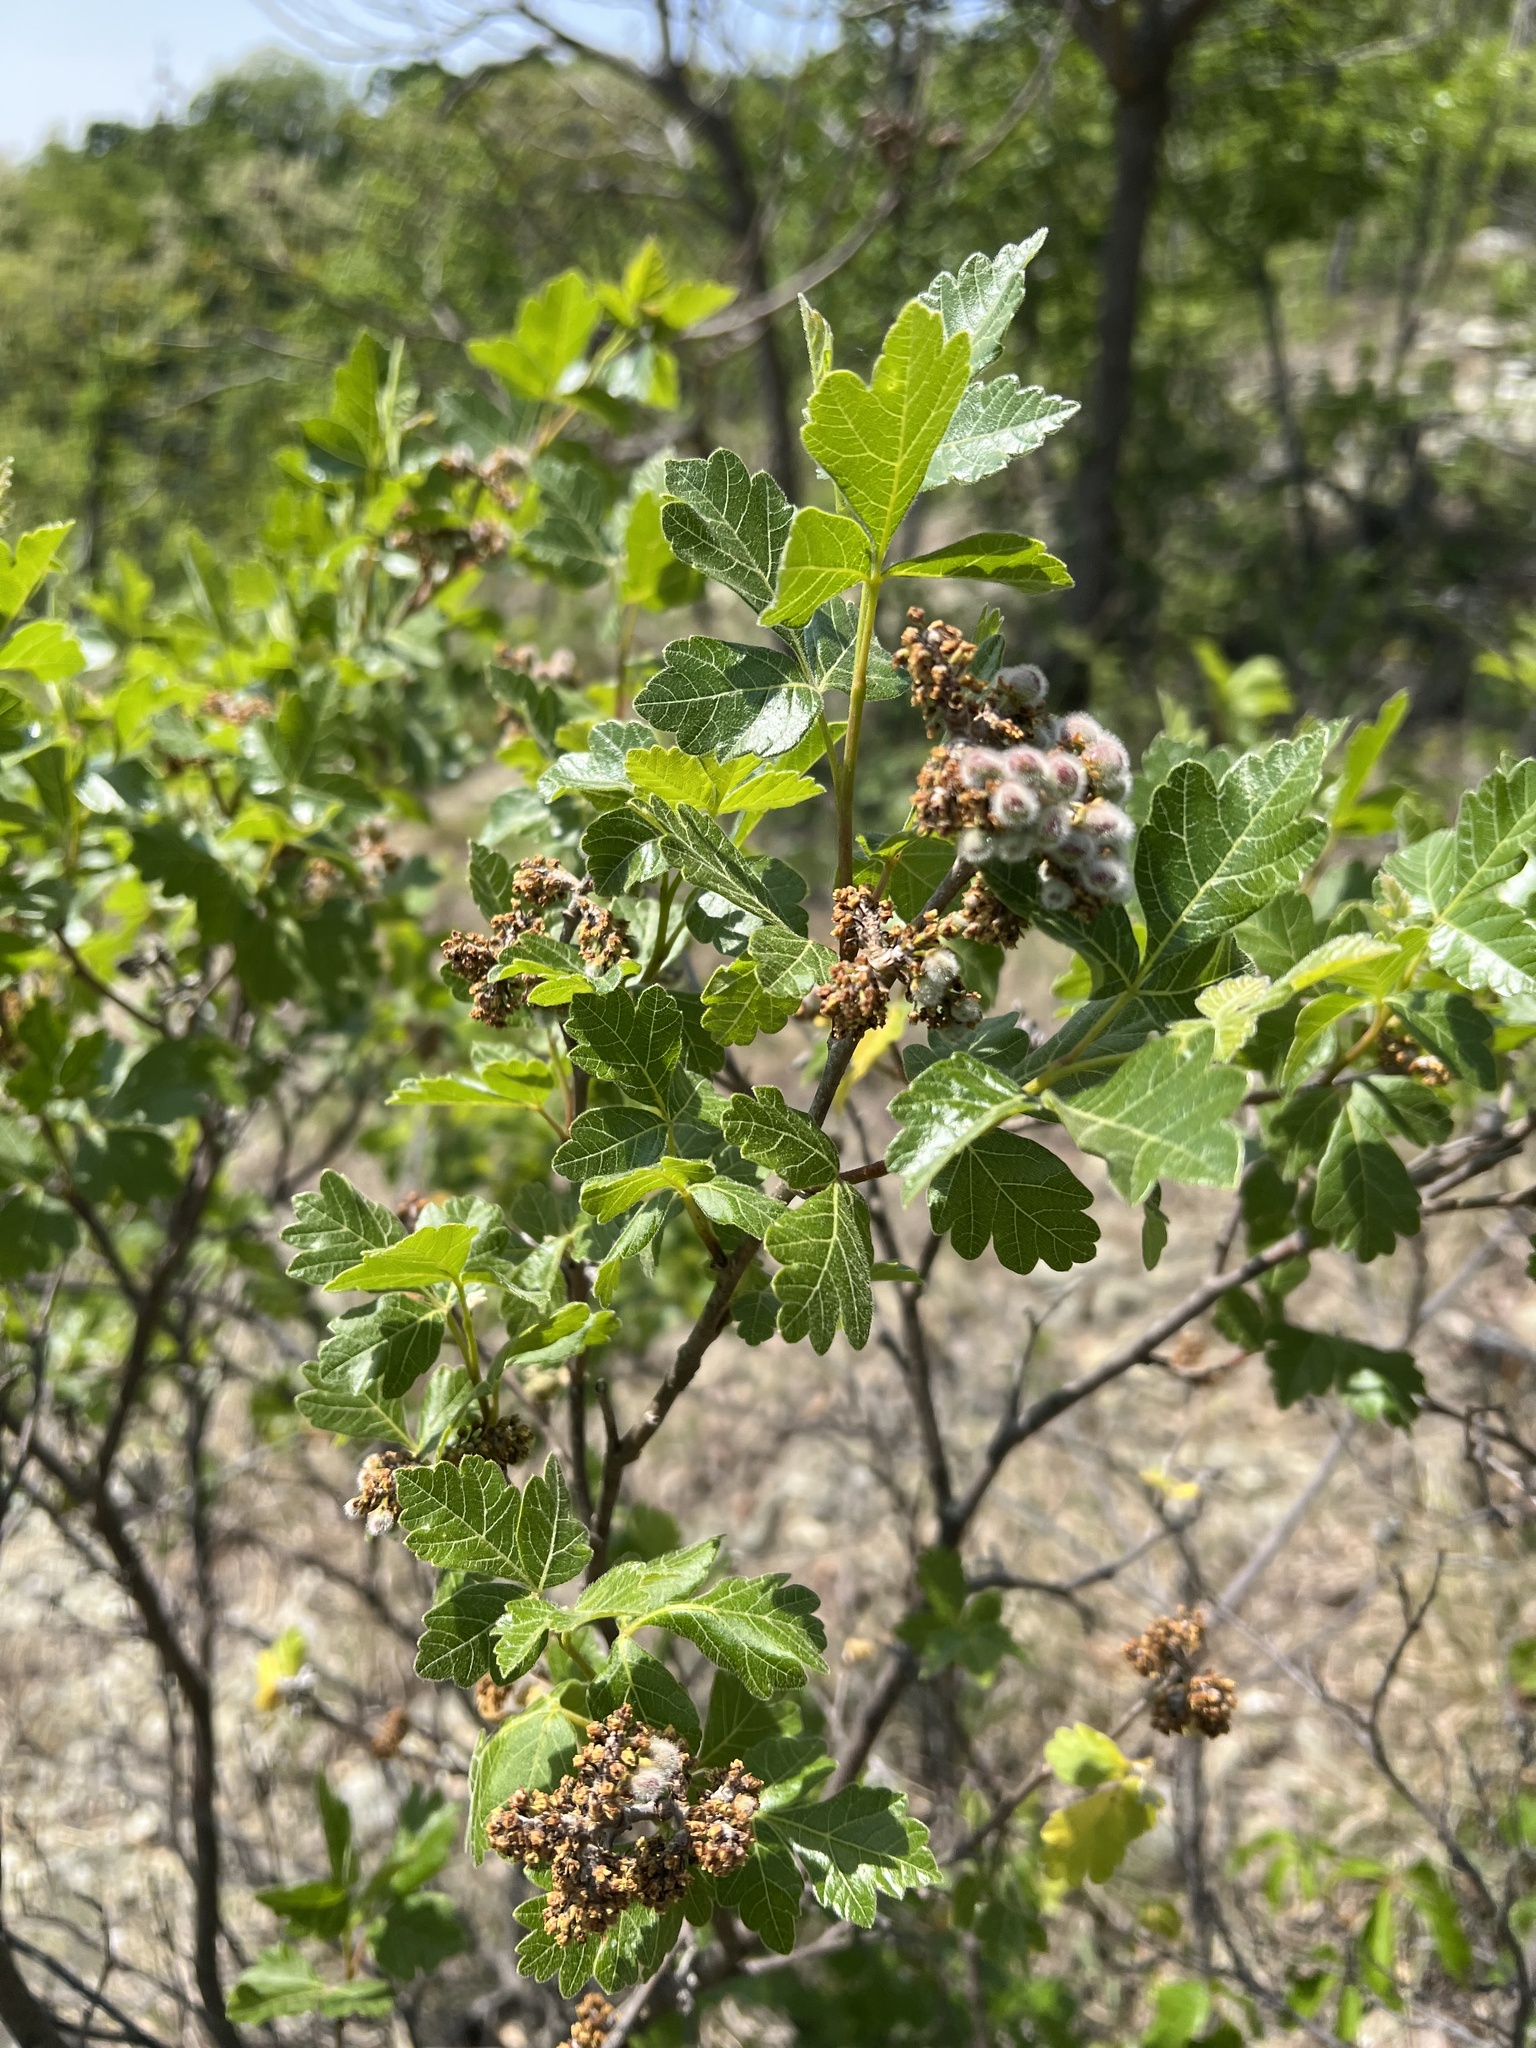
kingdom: Plantae
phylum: Tracheophyta
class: Magnoliopsida
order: Sapindales
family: Anacardiaceae
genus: Rhus
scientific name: Rhus aromatica
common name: Aromatic sumac
